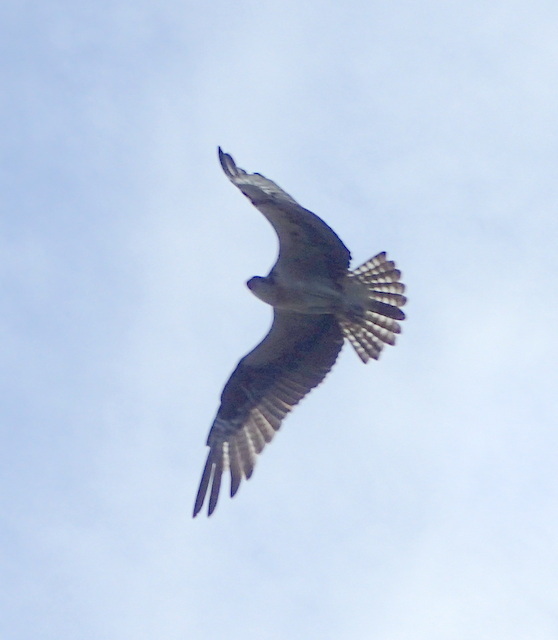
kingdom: Animalia
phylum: Chordata
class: Aves
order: Accipitriformes
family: Pandionidae
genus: Pandion
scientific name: Pandion haliaetus
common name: Osprey
